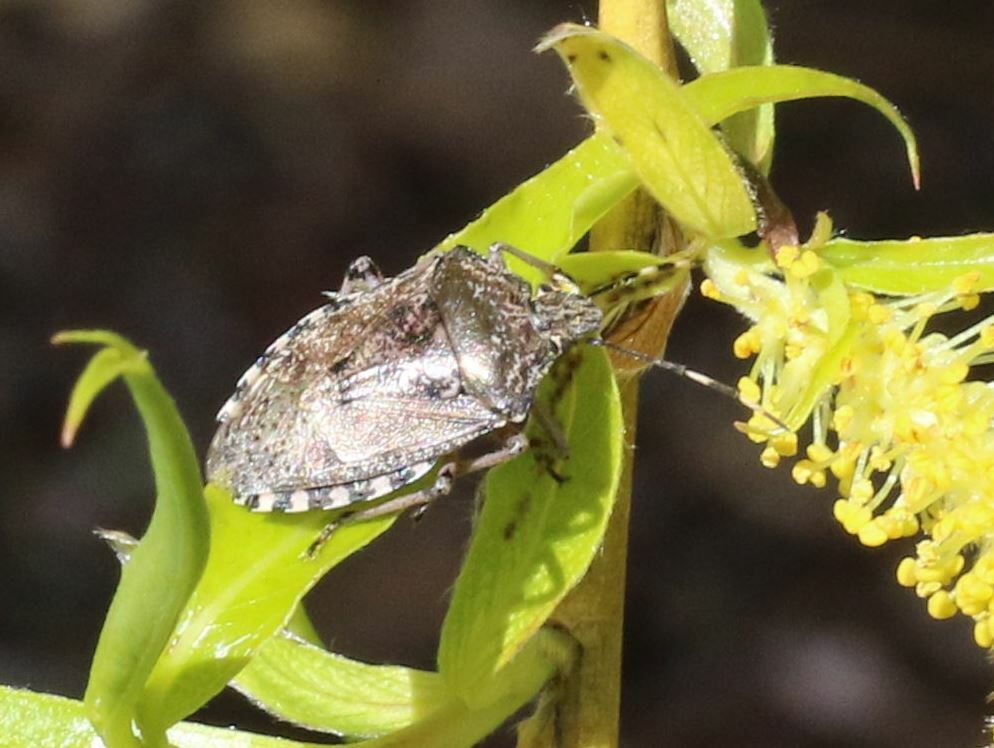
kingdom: Animalia
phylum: Arthropoda
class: Insecta
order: Hemiptera
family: Pentatomidae
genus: Rhaphigaster
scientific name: Rhaphigaster nebulosa
